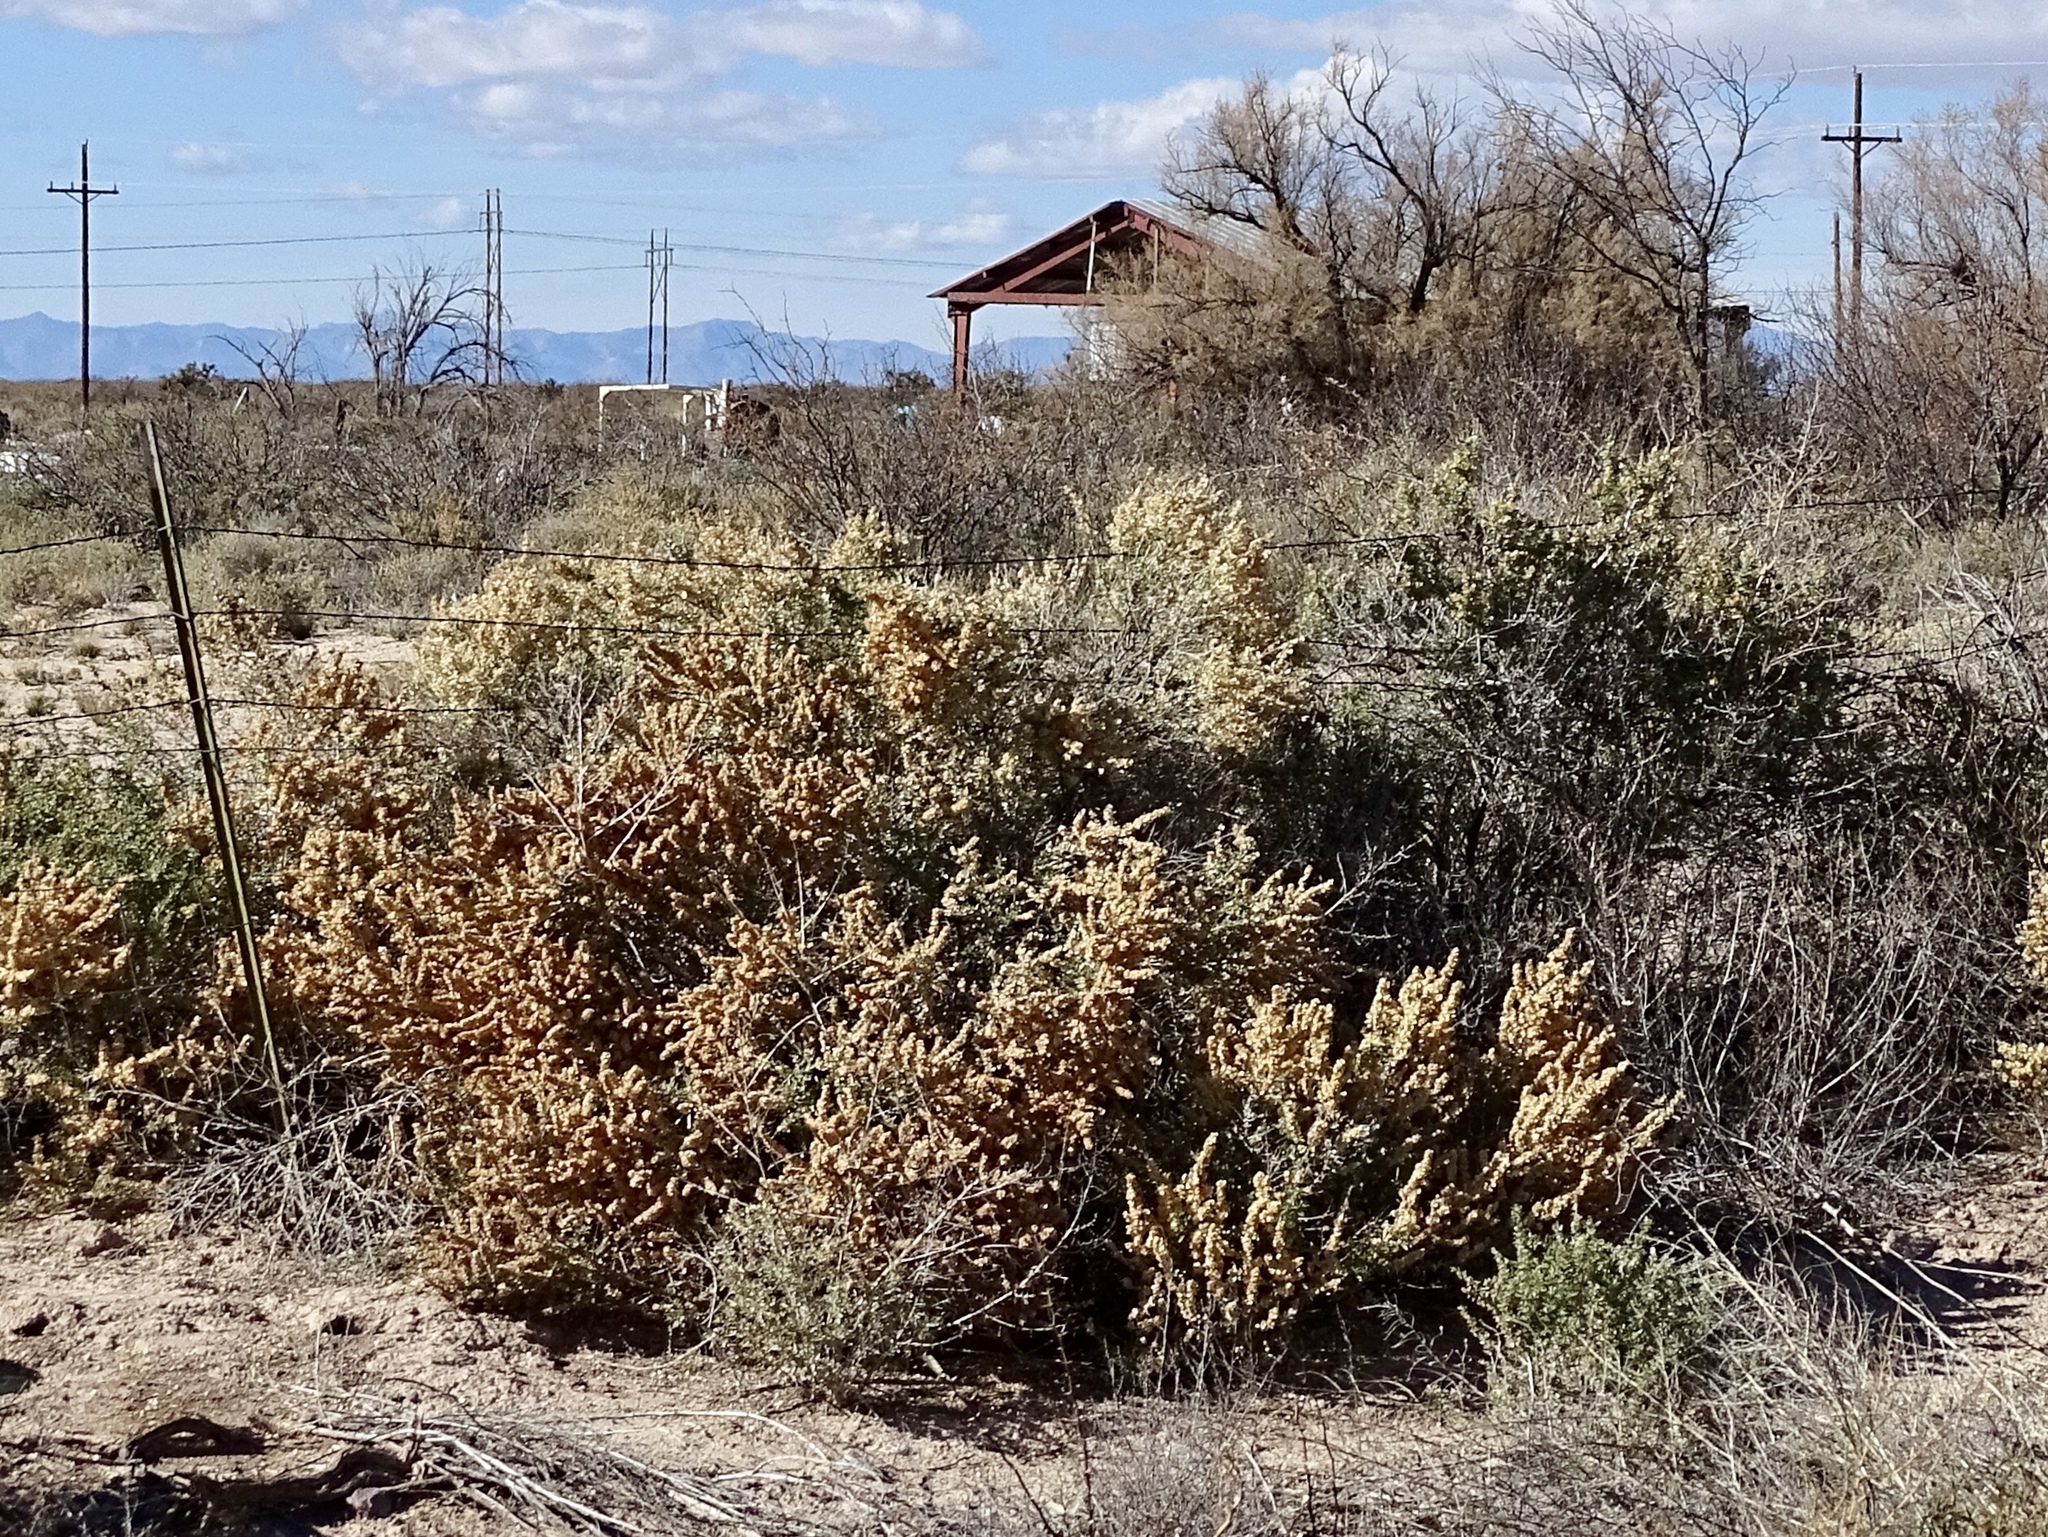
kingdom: Plantae
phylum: Tracheophyta
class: Magnoliopsida
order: Caryophyllales
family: Amaranthaceae
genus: Atriplex
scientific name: Atriplex canescens
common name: Four-wing saltbush
